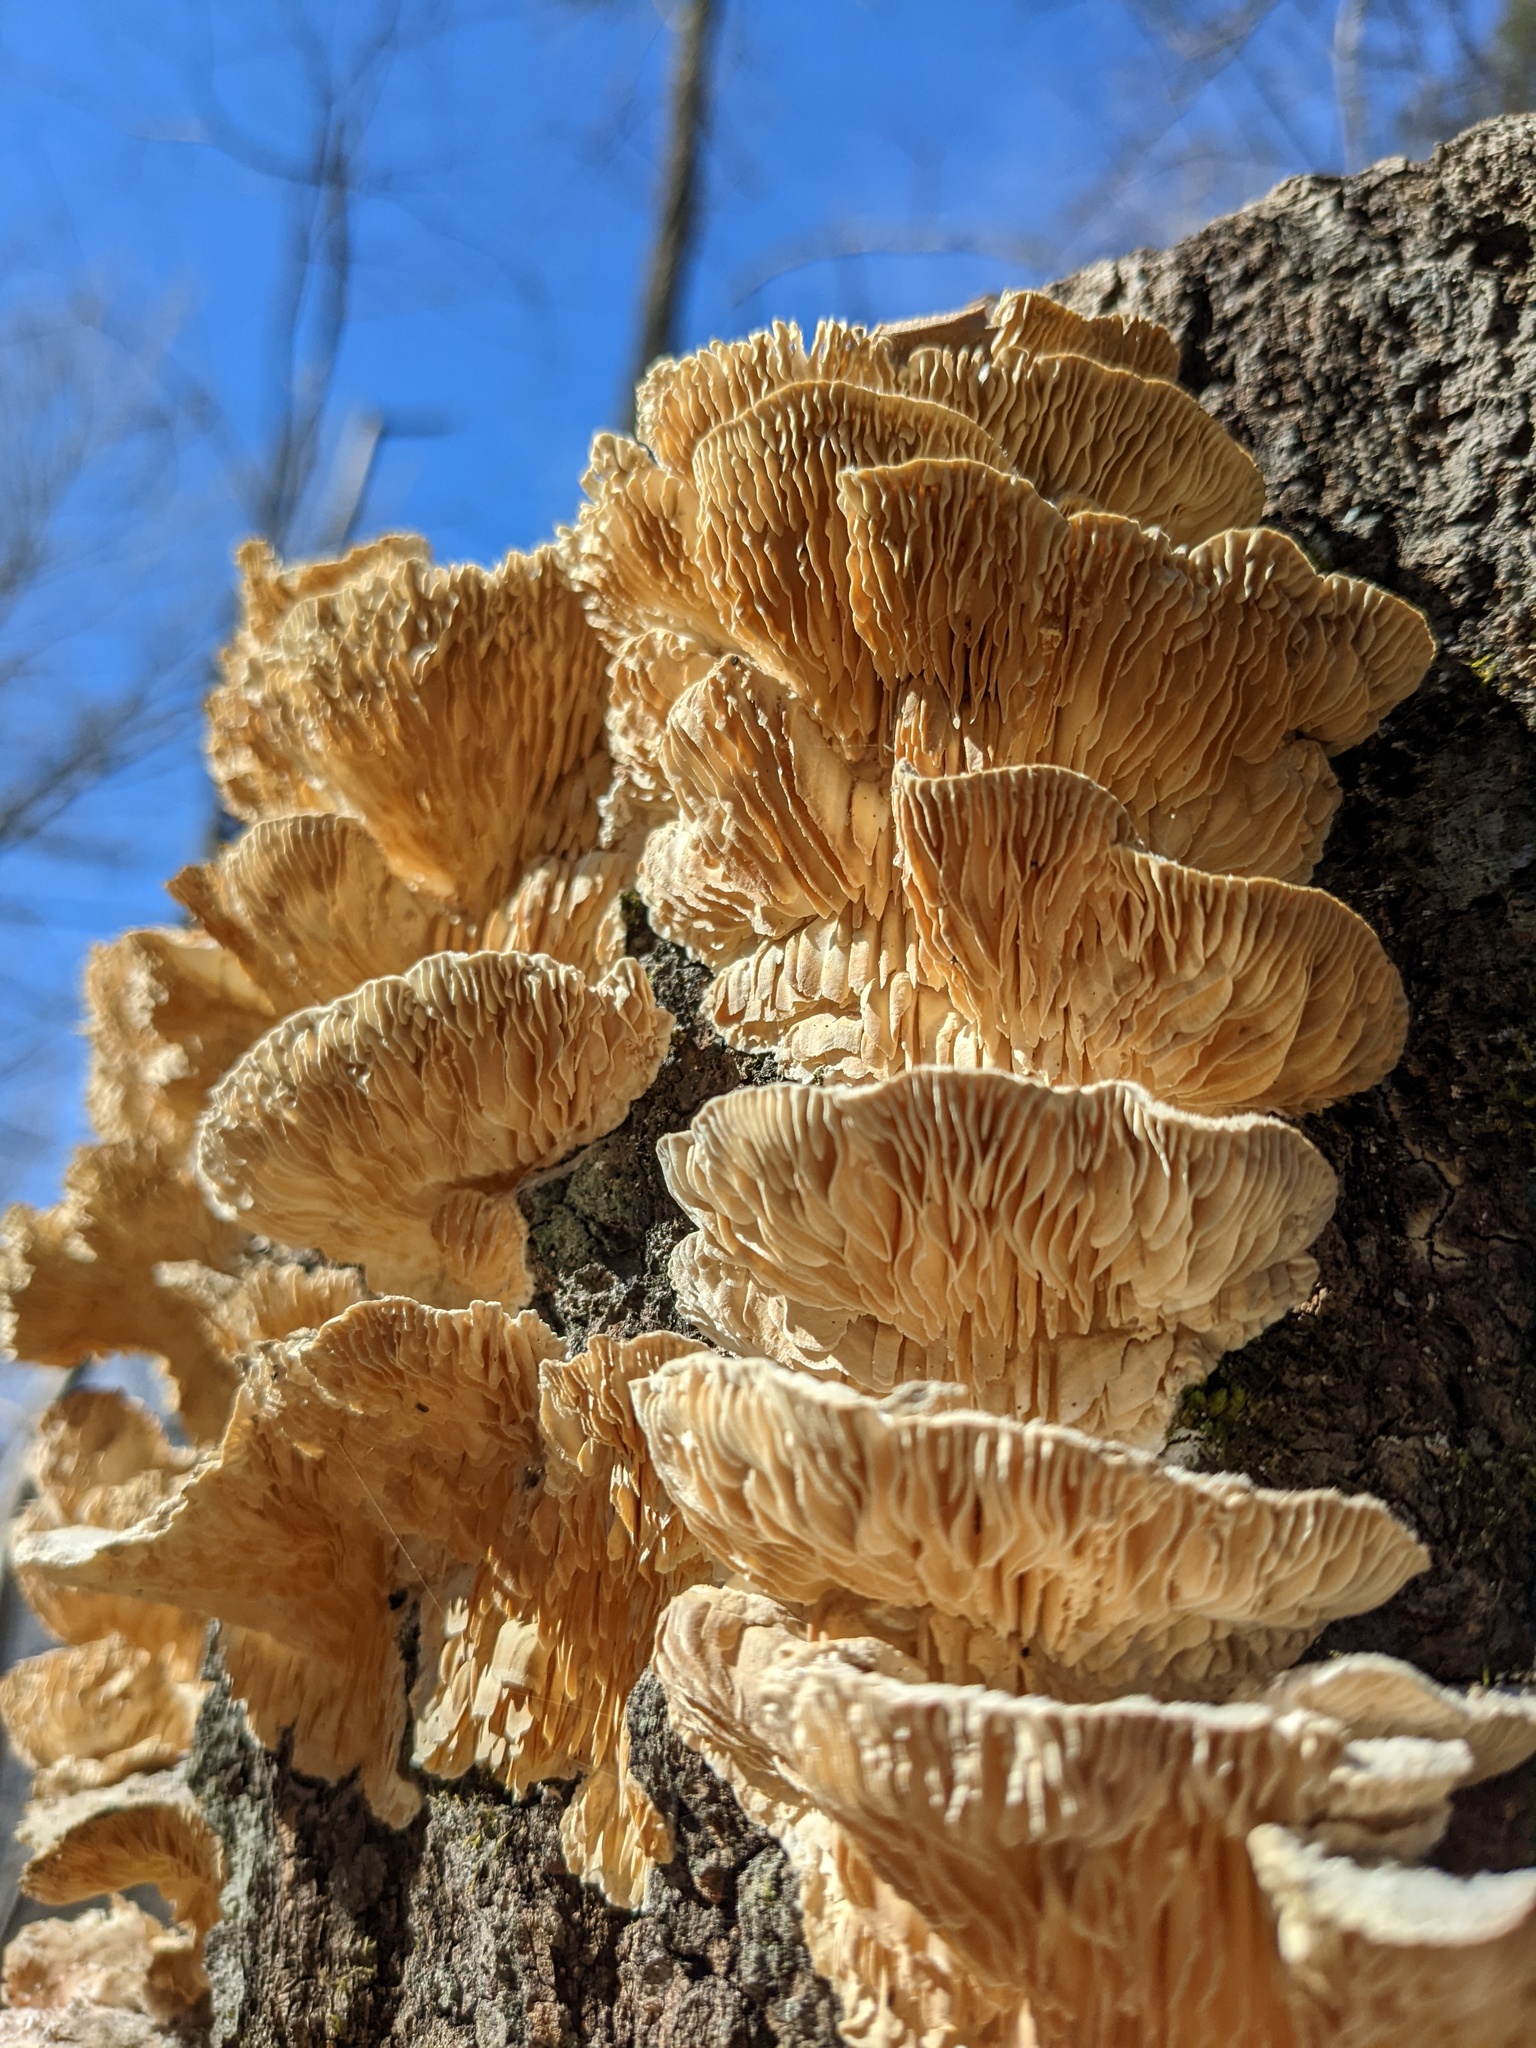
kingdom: Fungi
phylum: Basidiomycota
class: Agaricomycetes
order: Polyporales
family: Polyporaceae
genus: Lenzites
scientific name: Lenzites betulinus
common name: Birch mazegill
